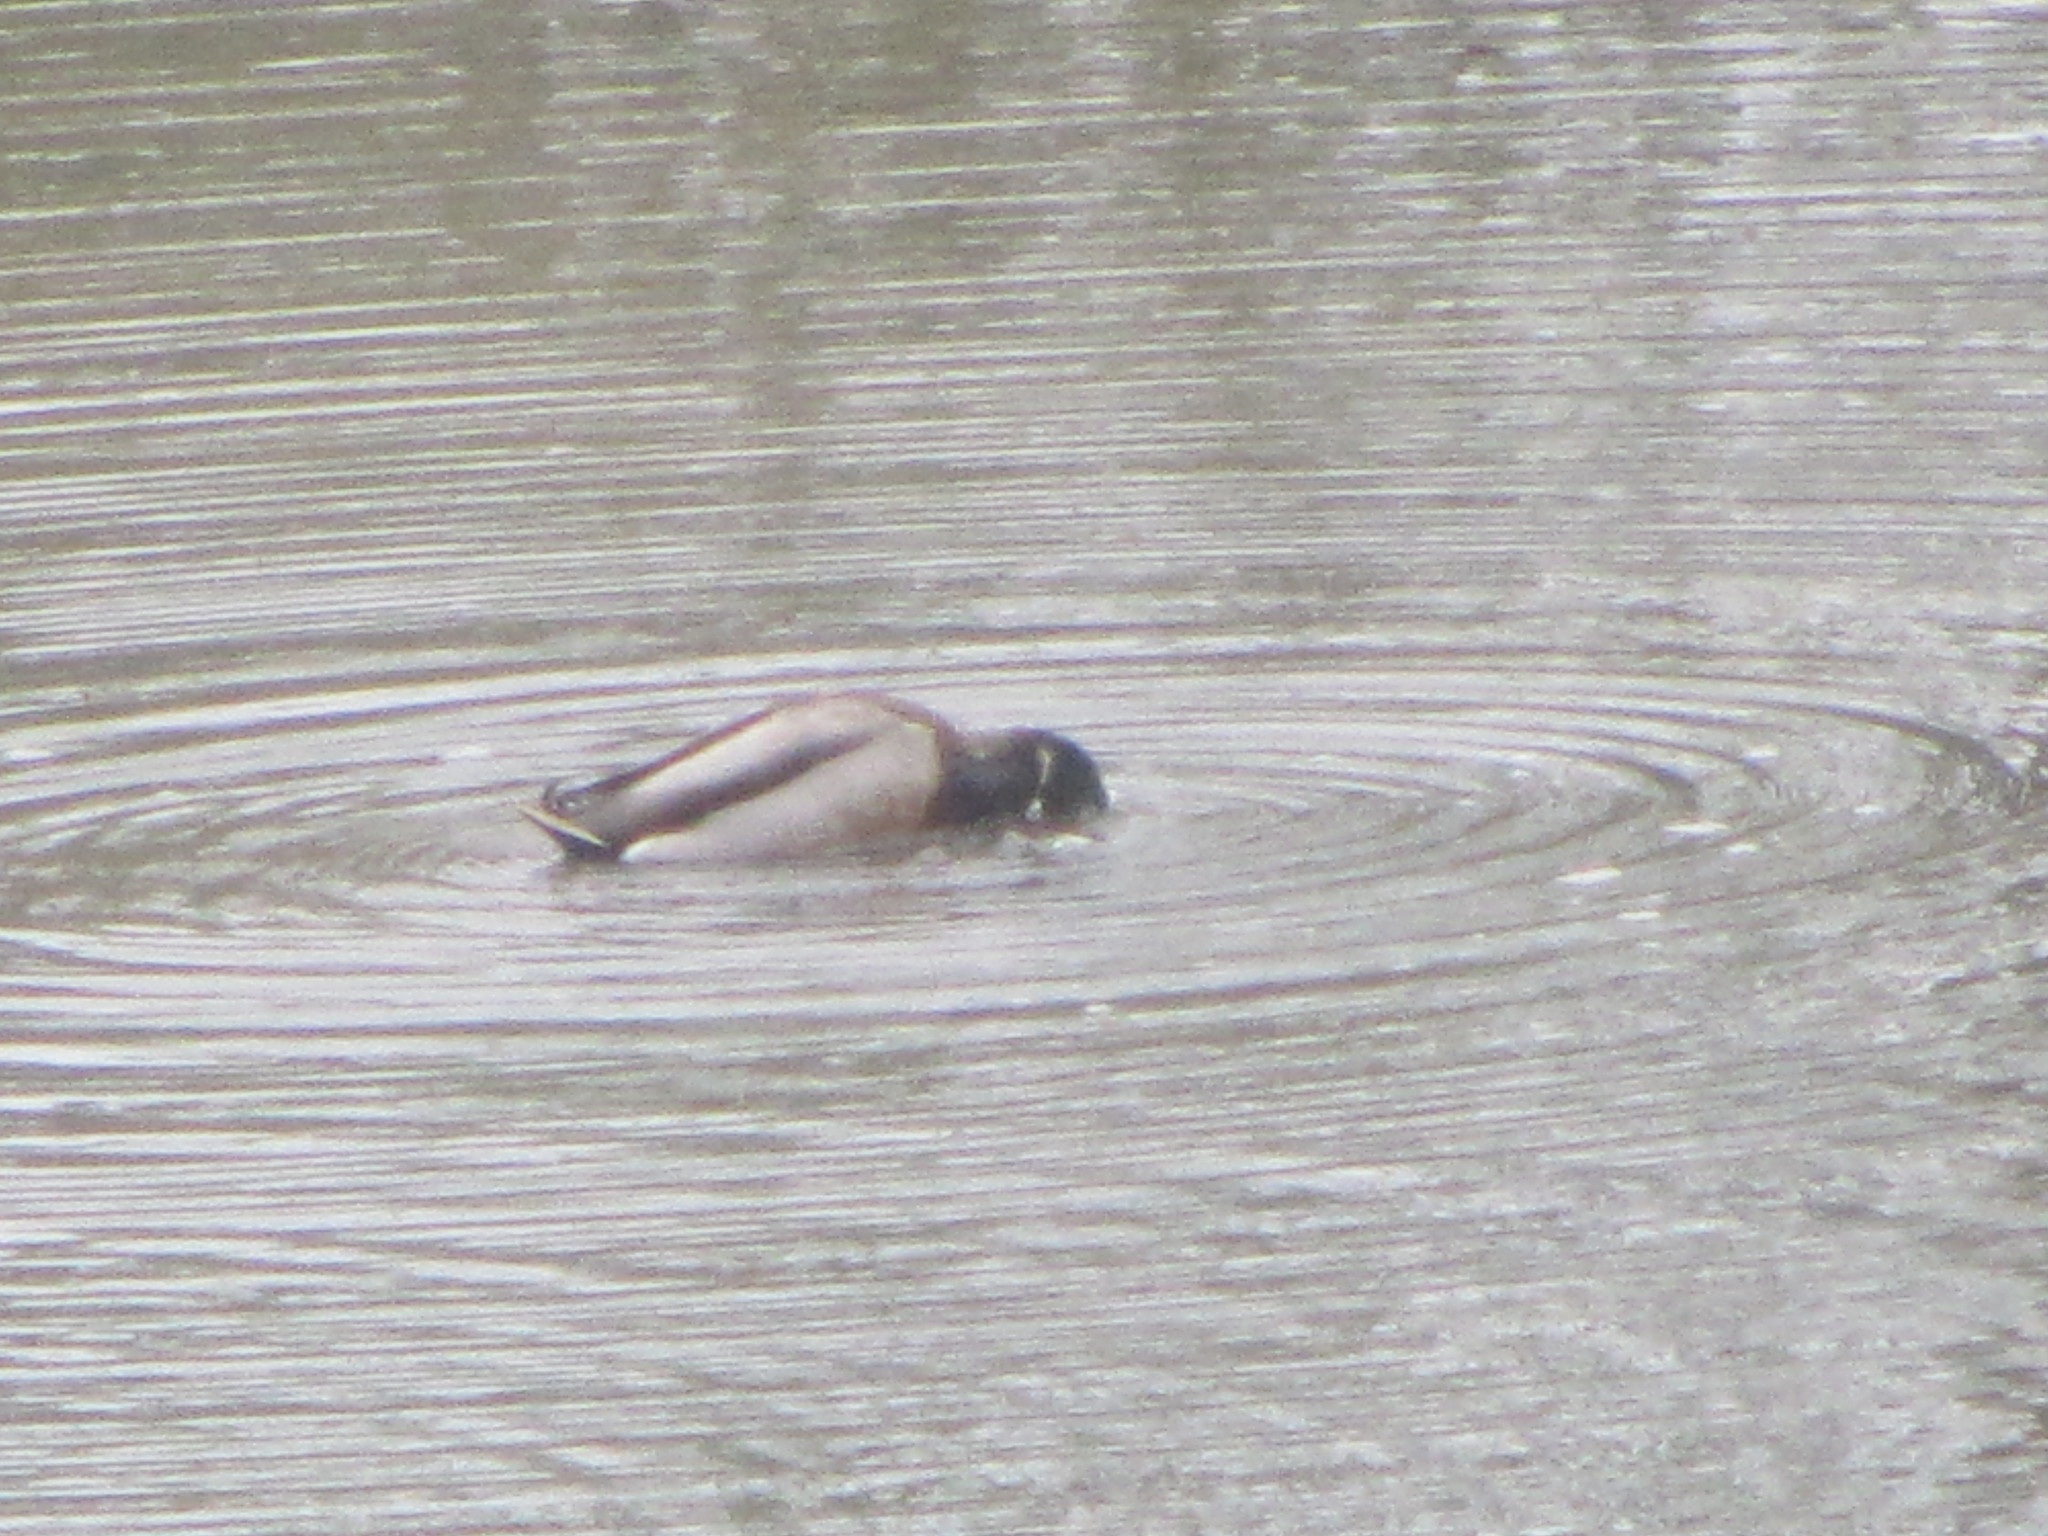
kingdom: Animalia
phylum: Chordata
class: Aves
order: Anseriformes
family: Anatidae
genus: Anas
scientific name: Anas platyrhynchos
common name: Mallard
